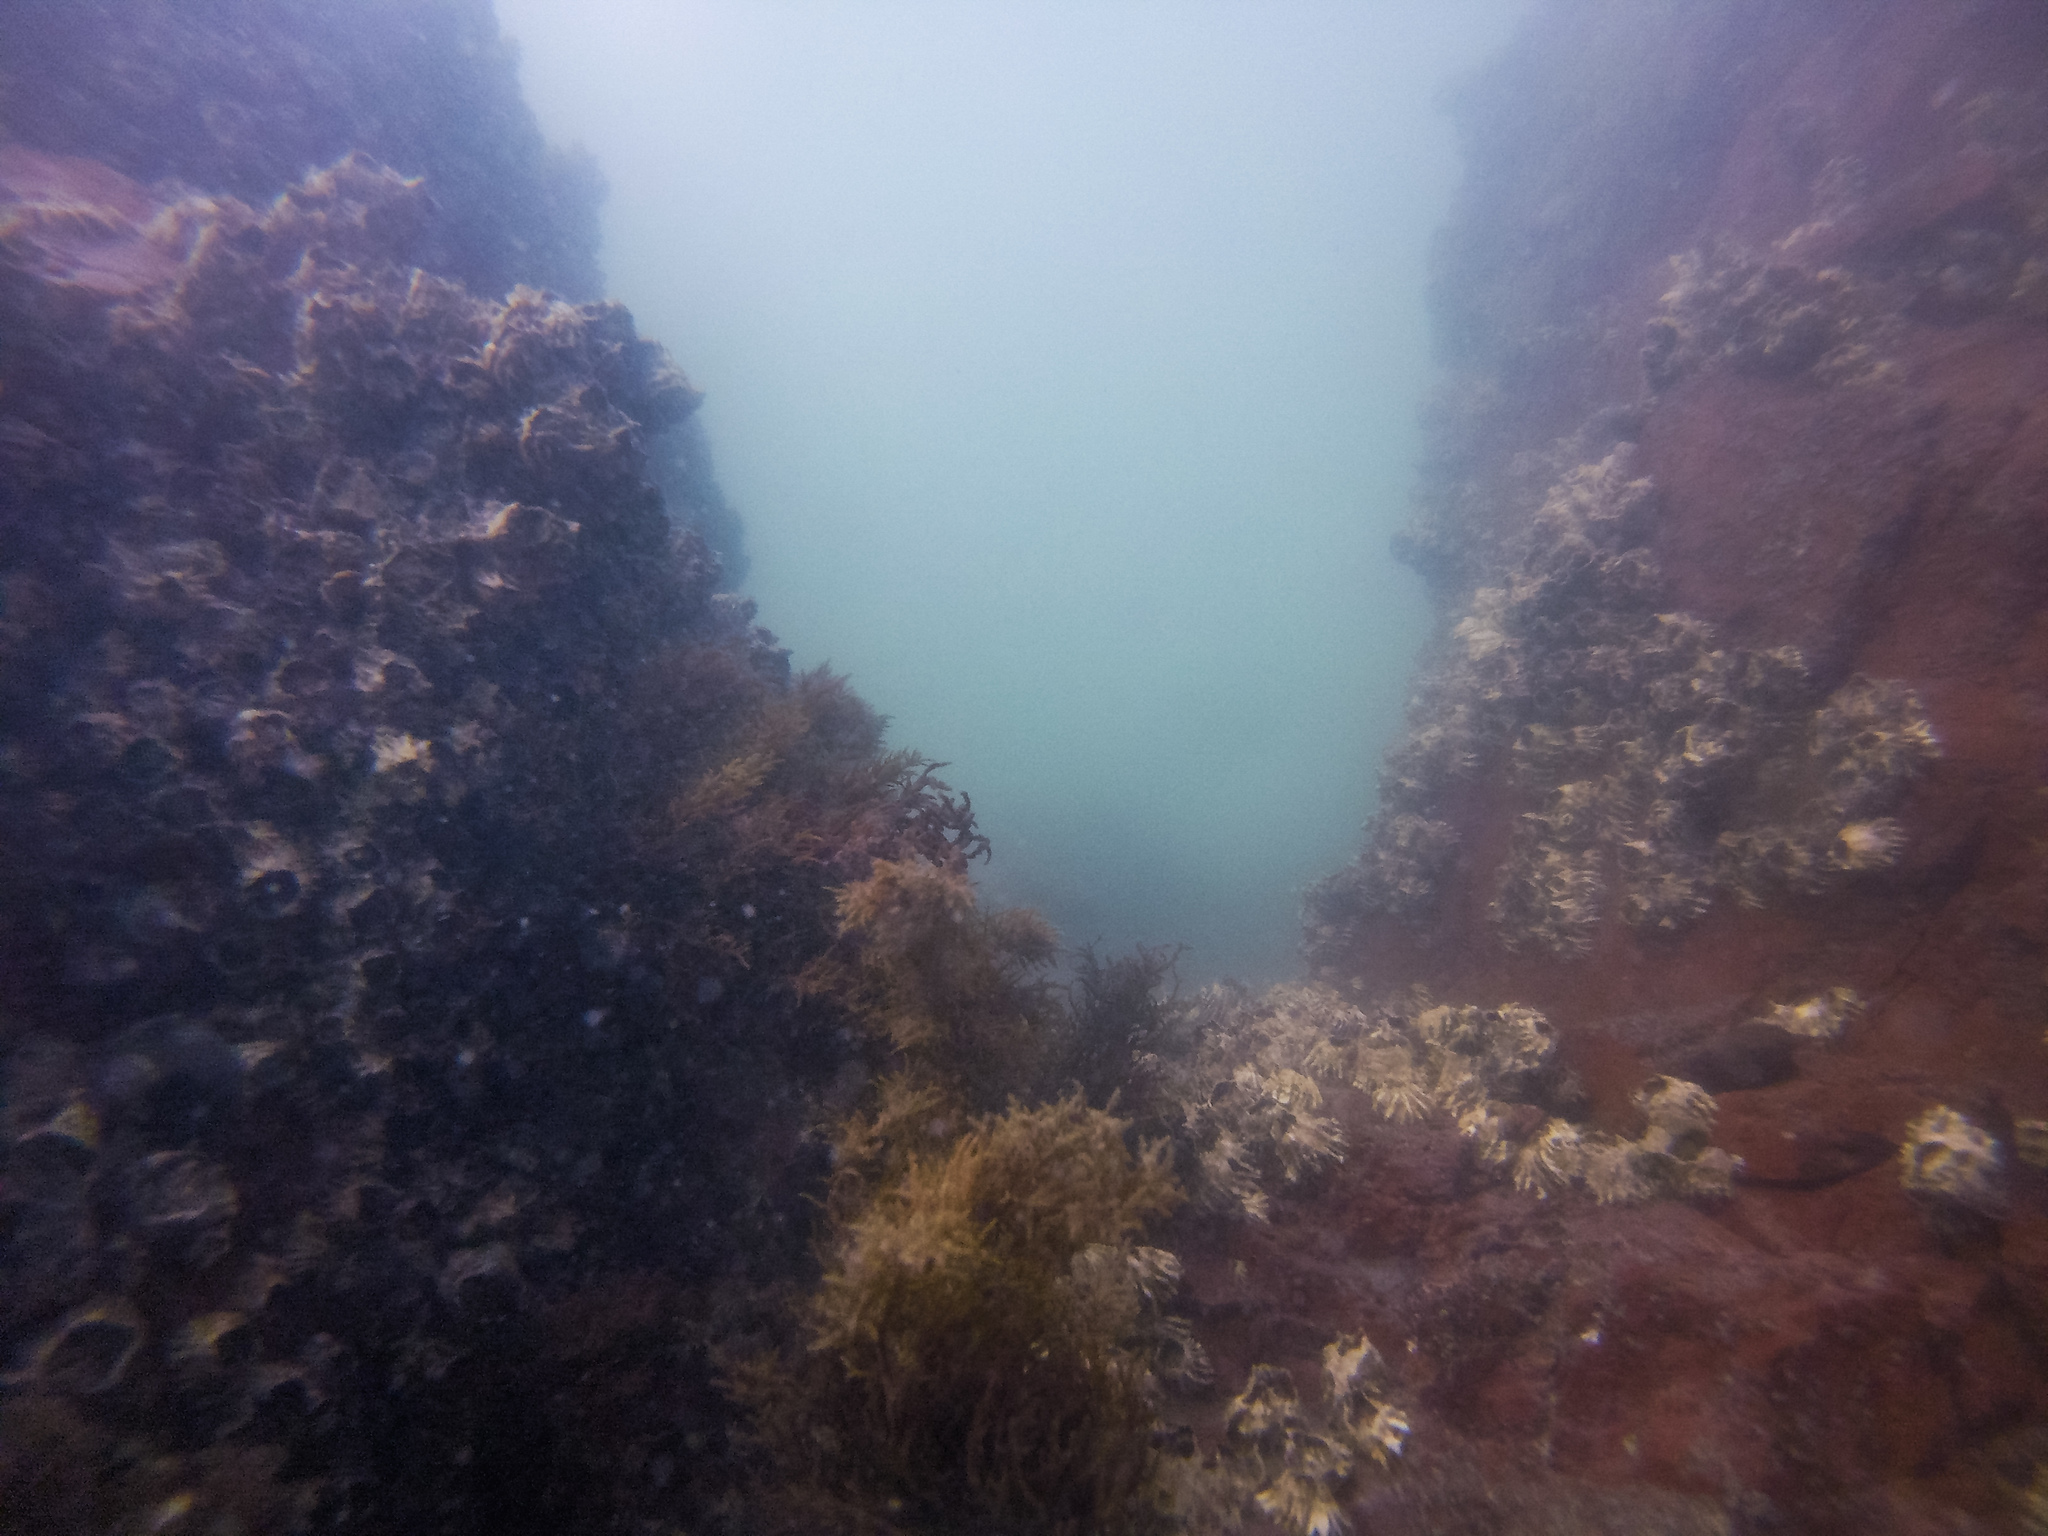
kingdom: Animalia
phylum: Arthropoda
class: Maxillopoda
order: Sessilia
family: Tetraclitidae
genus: Epopella
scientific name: Epopella plicata
